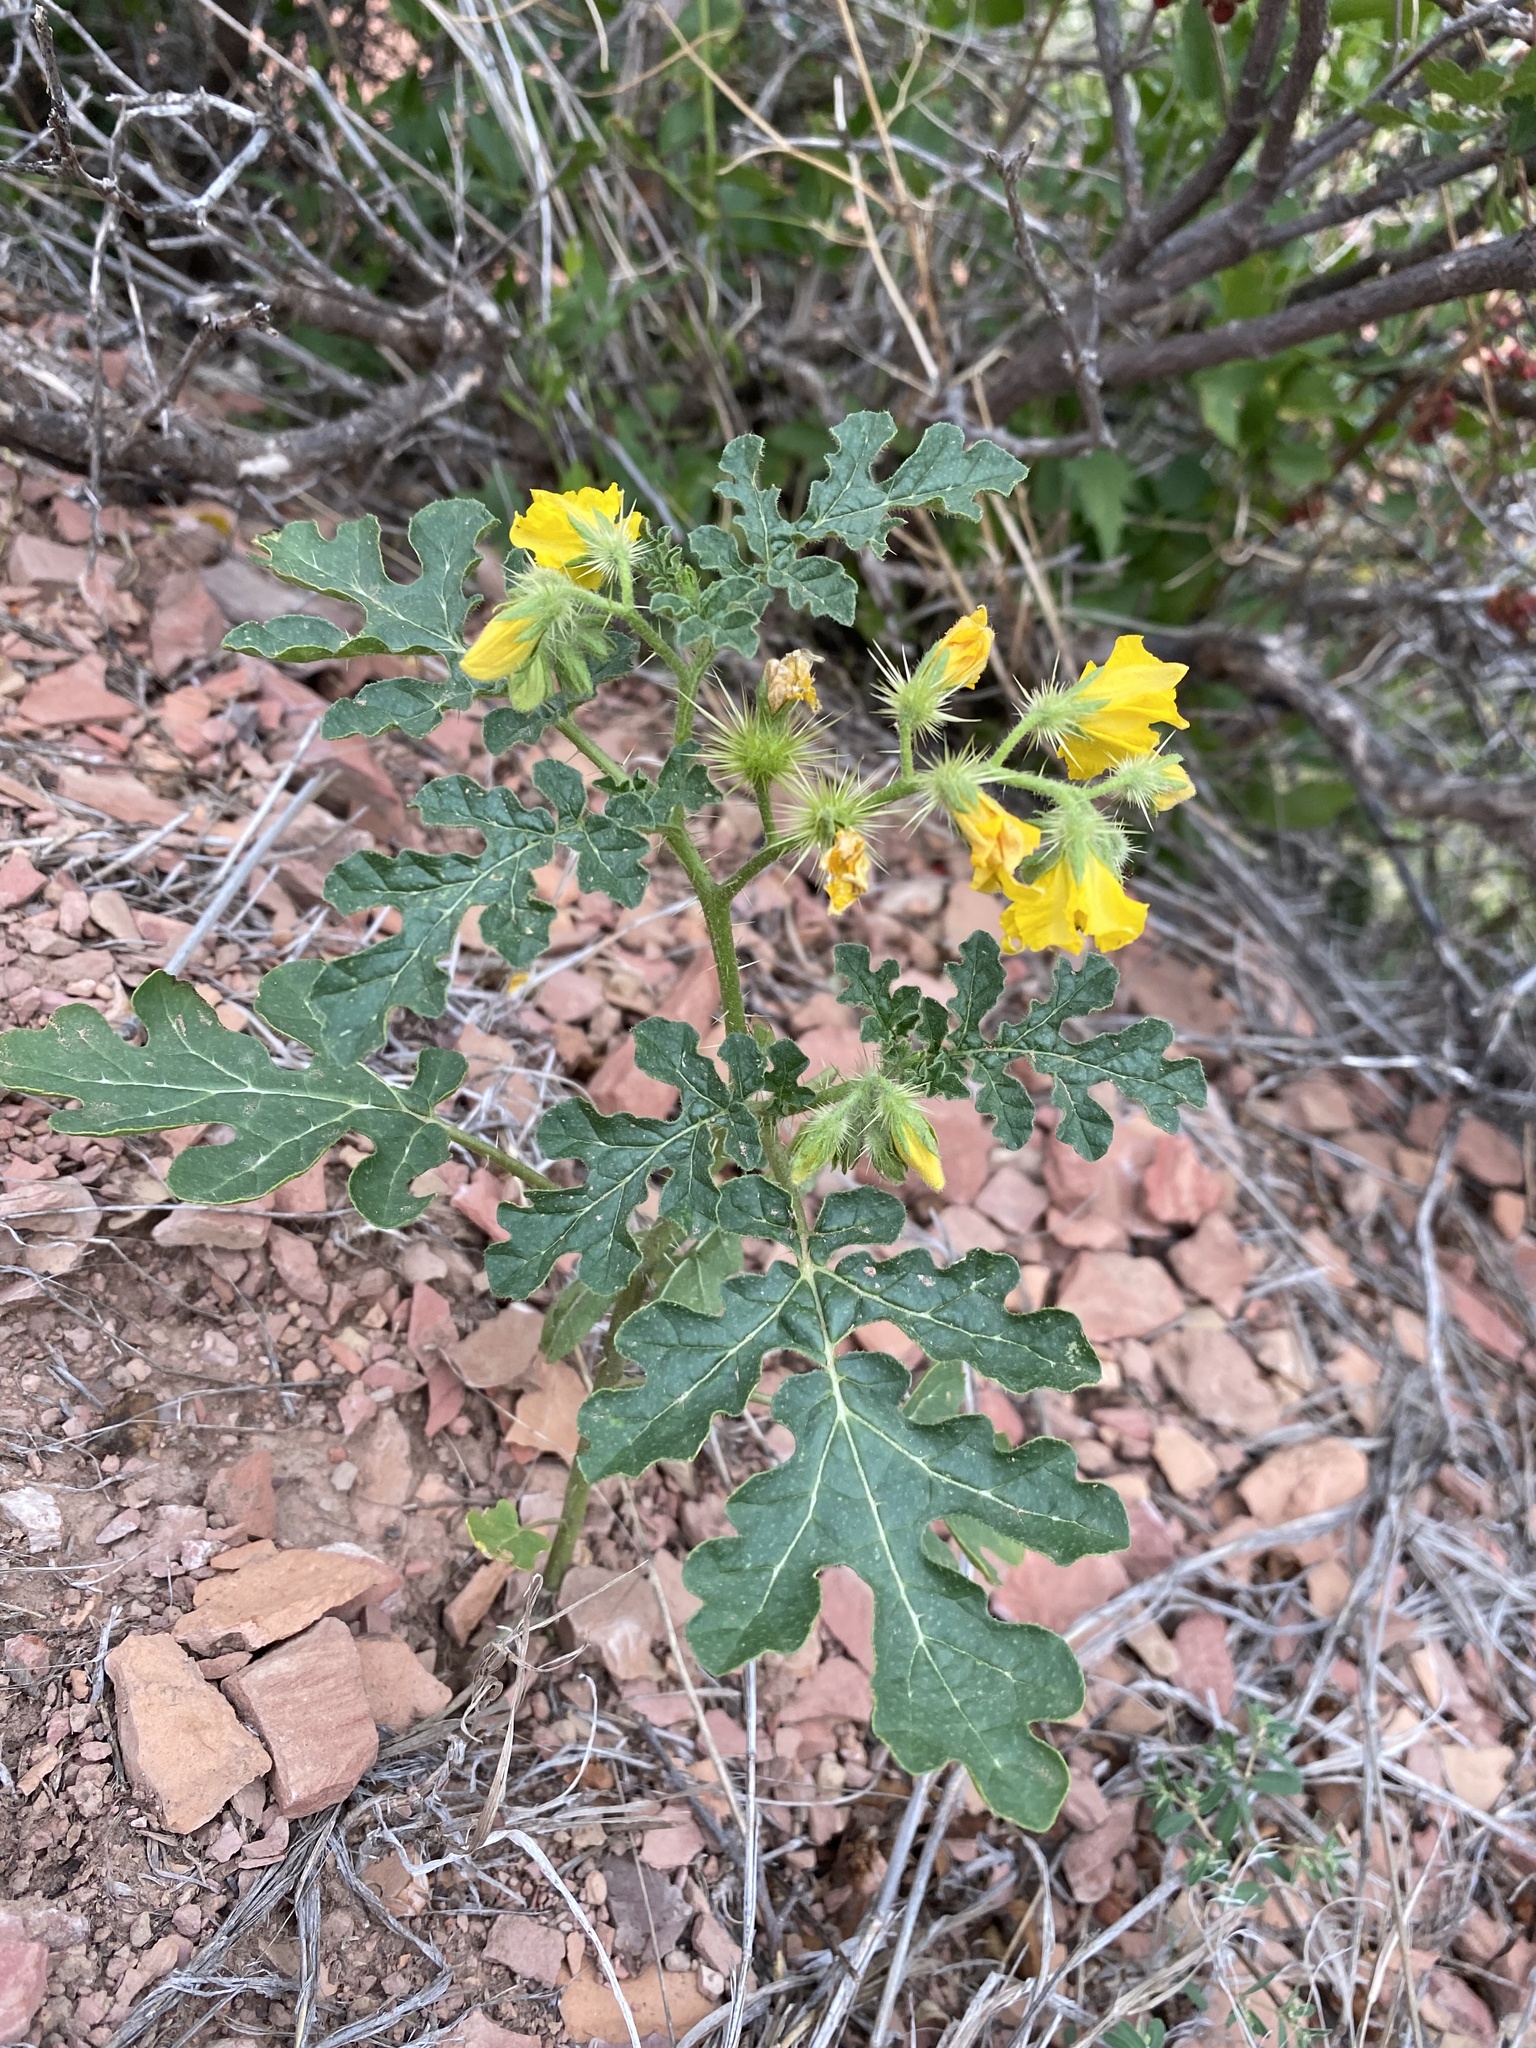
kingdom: Plantae
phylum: Tracheophyta
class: Magnoliopsida
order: Solanales
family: Solanaceae
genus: Solanum
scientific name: Solanum angustifolium
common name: Buffalobur nightshade
